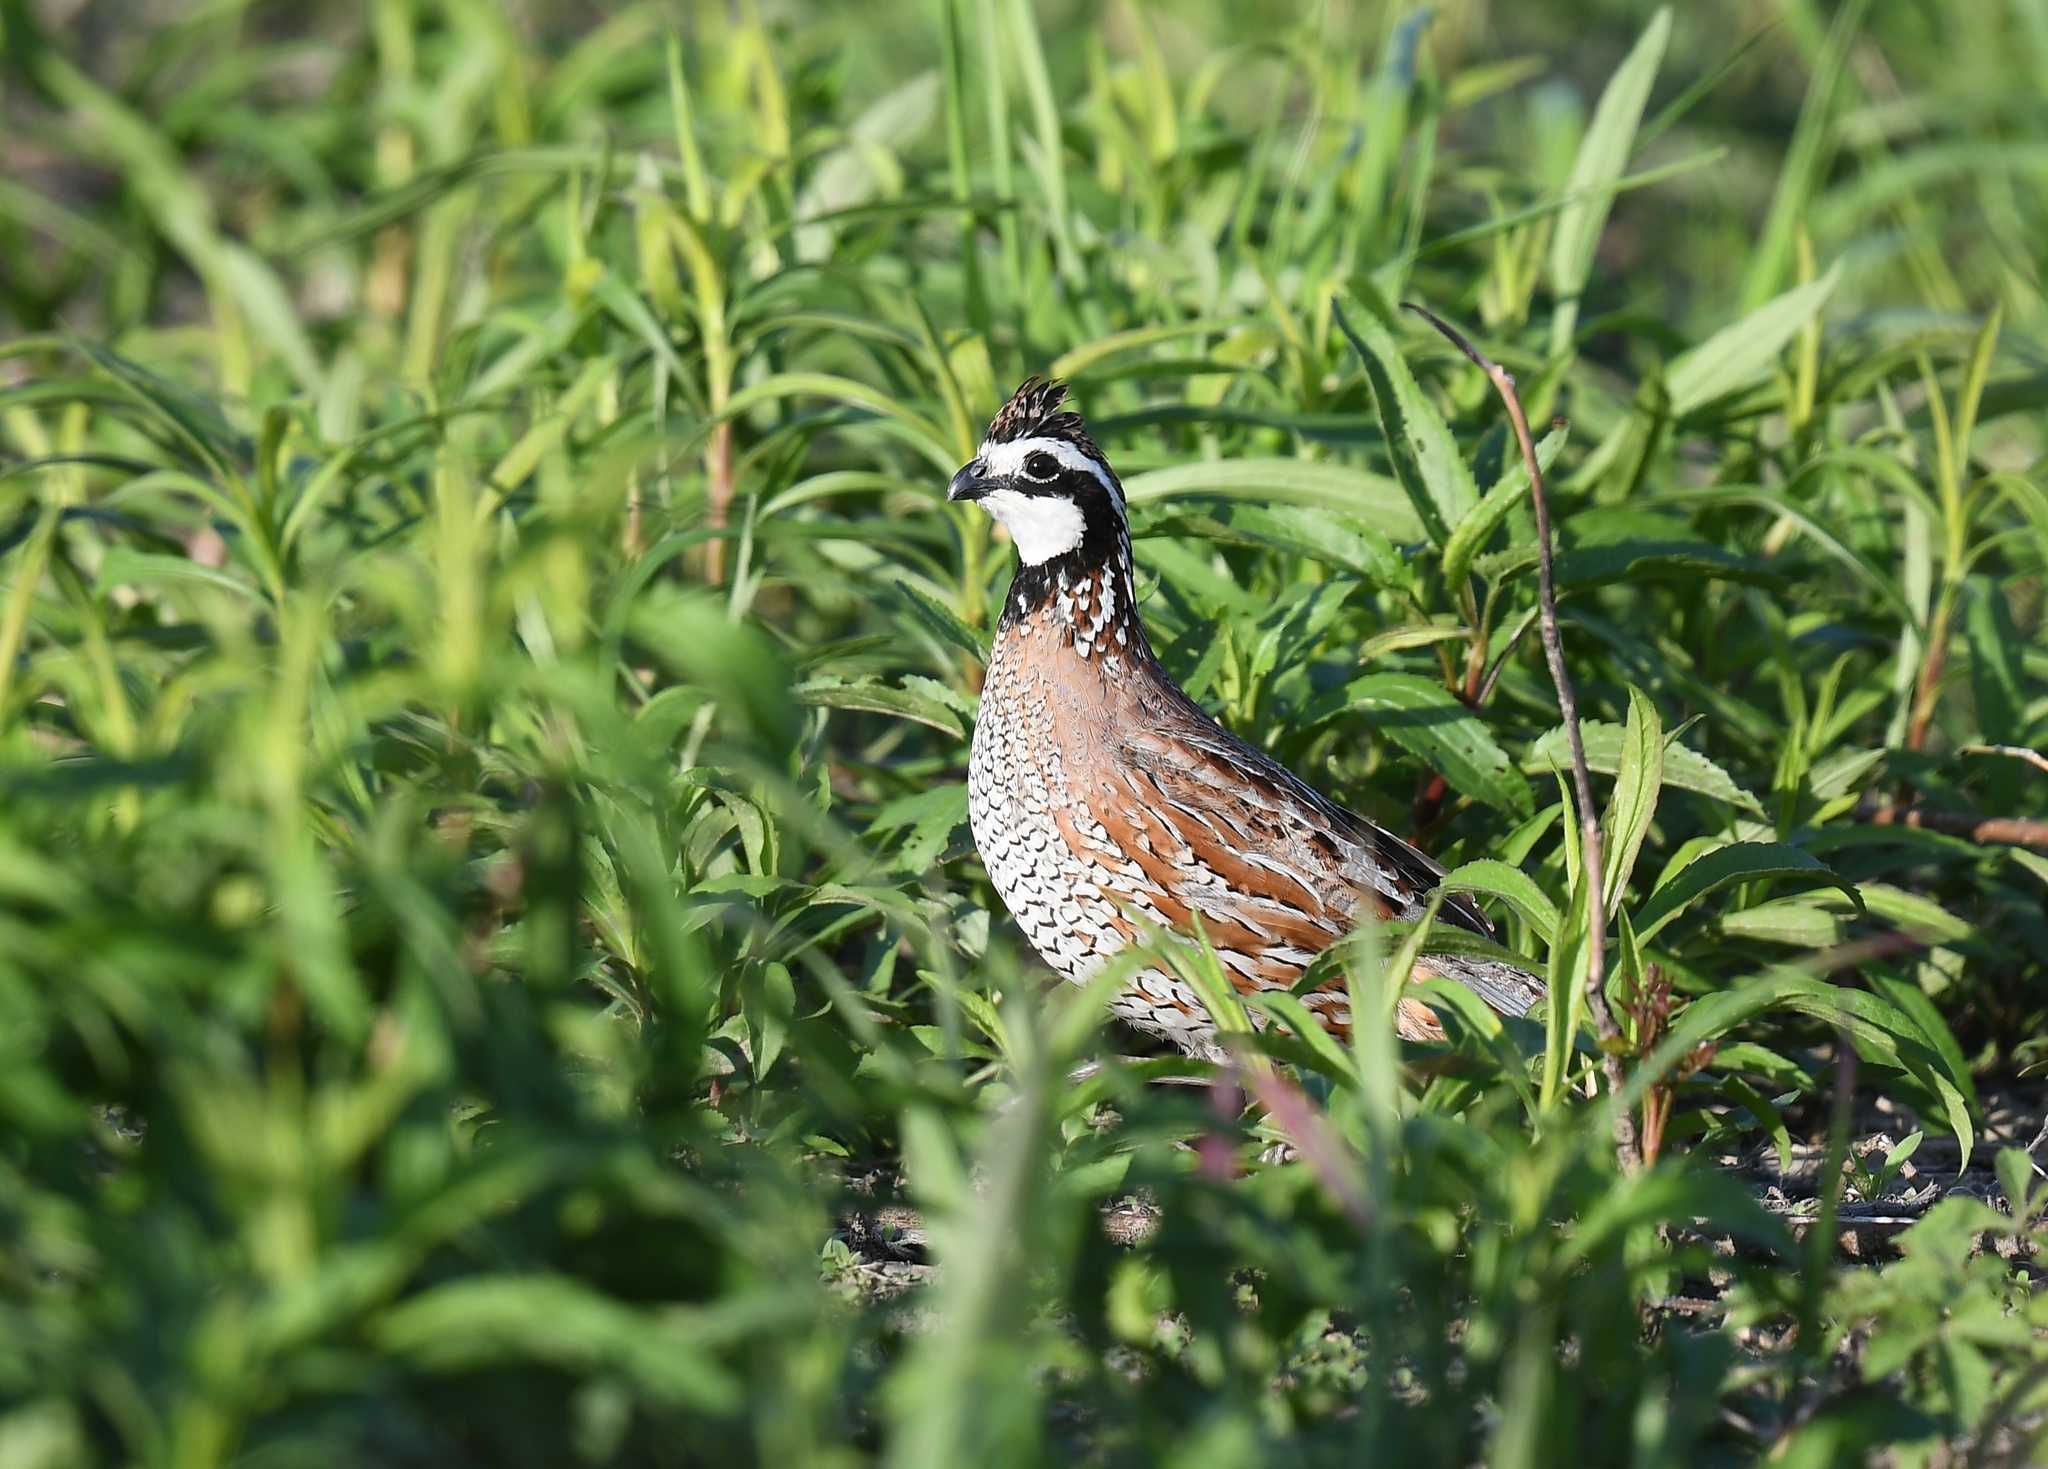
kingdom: Animalia
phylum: Chordata
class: Aves
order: Galliformes
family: Odontophoridae
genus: Colinus
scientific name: Colinus virginianus
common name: Northern bobwhite
